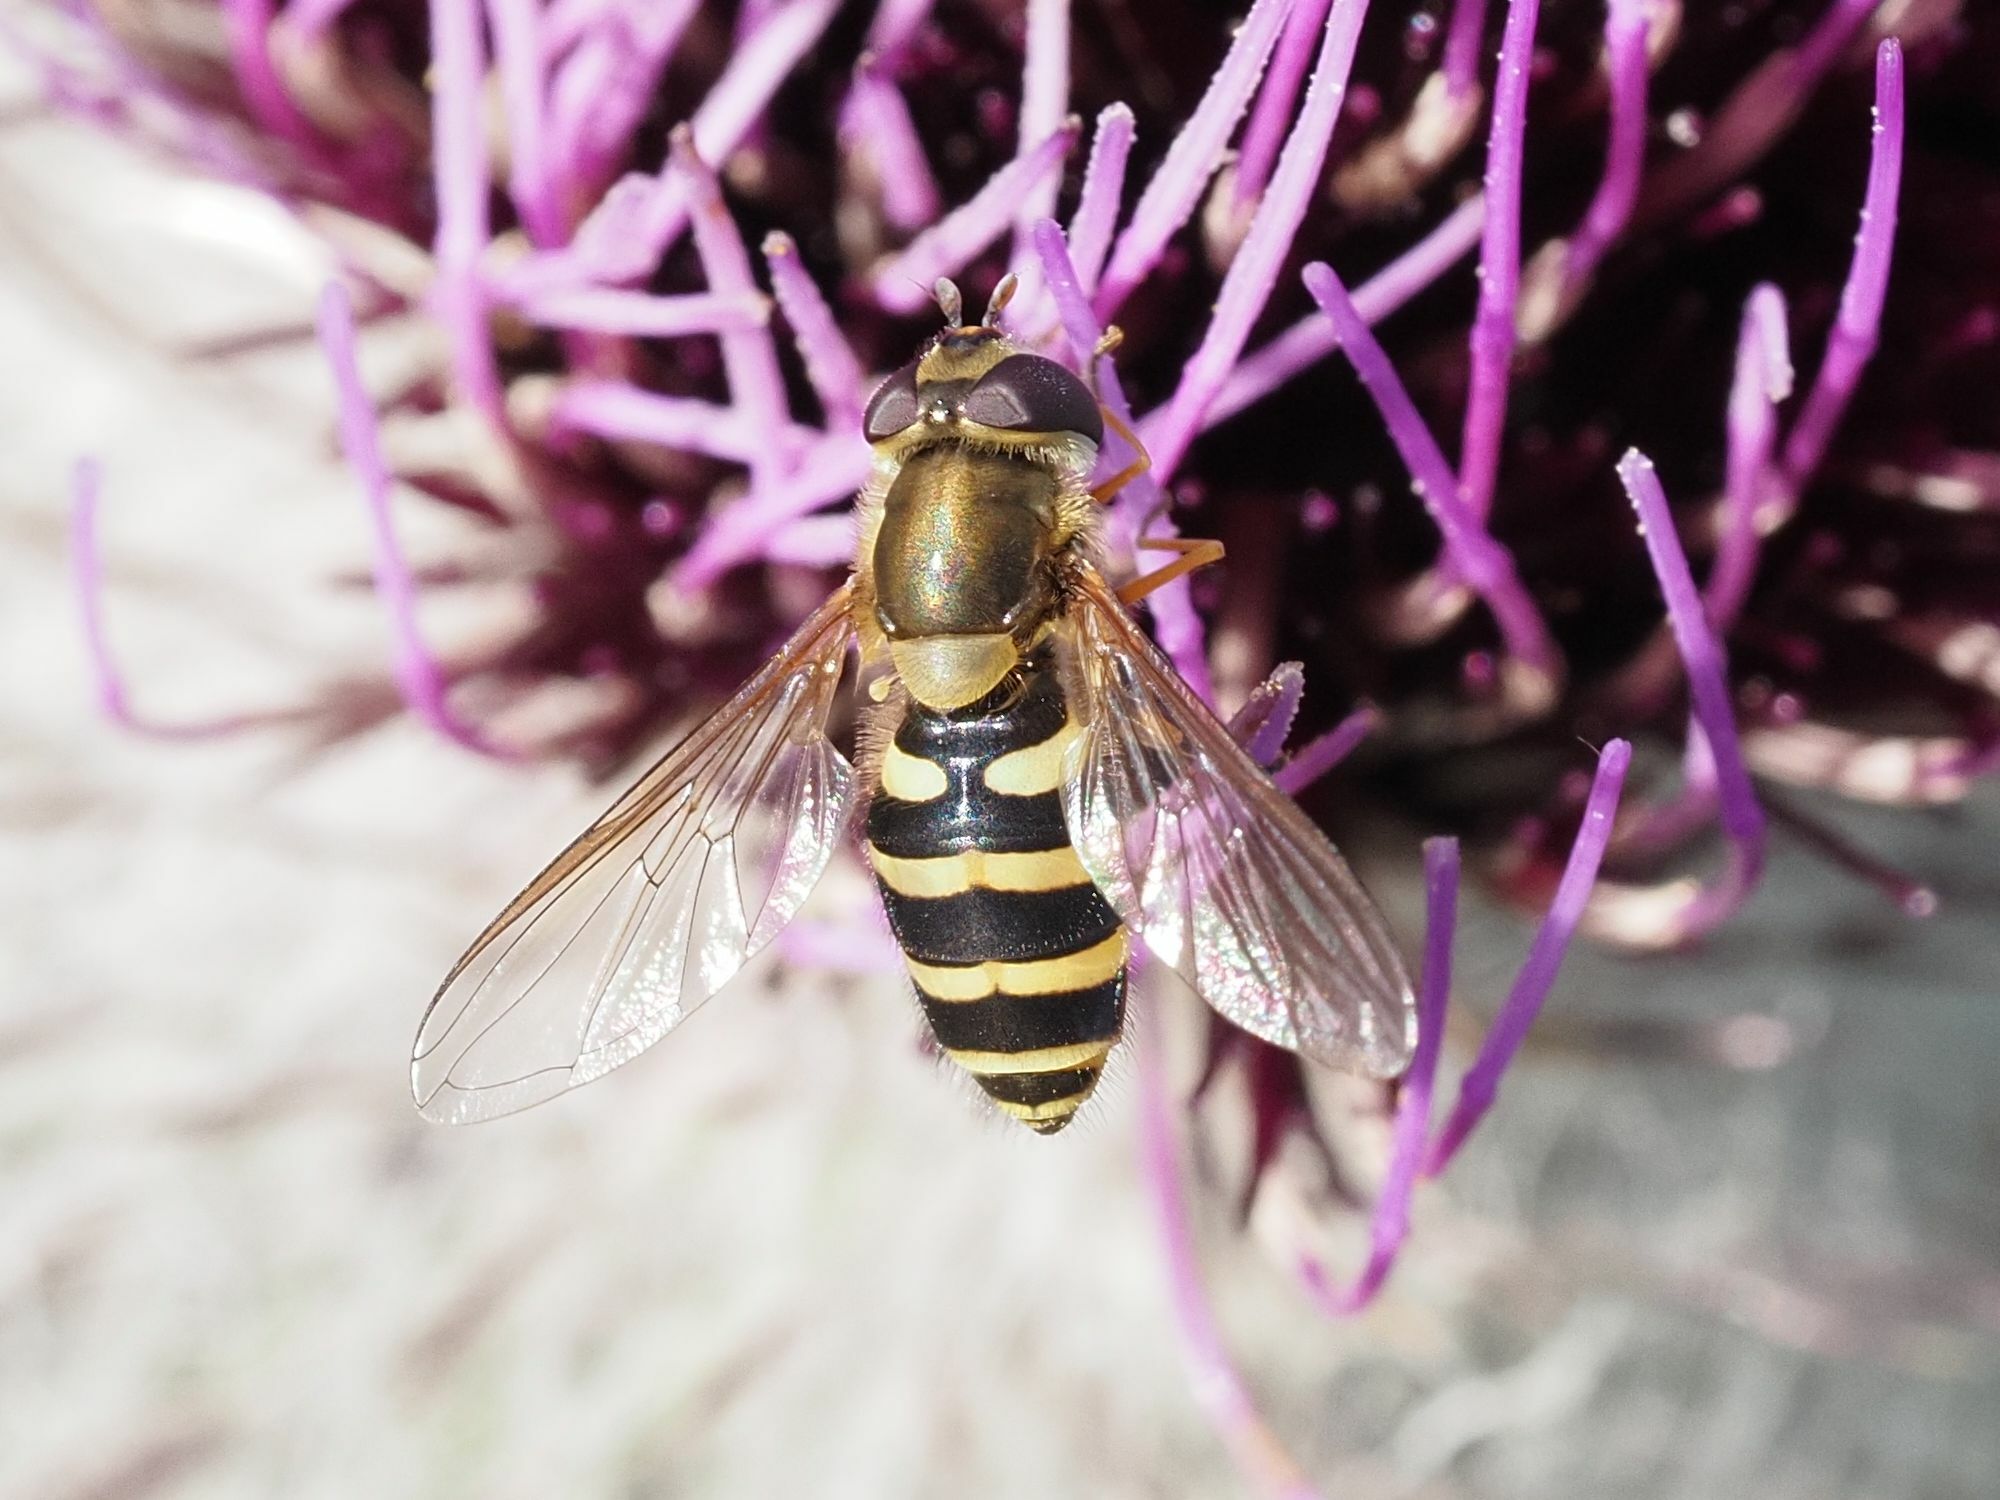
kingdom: Animalia
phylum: Arthropoda
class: Insecta
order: Diptera
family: Syrphidae
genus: Syrphus
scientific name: Syrphus torvus
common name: Hairy-eyed flower fly
